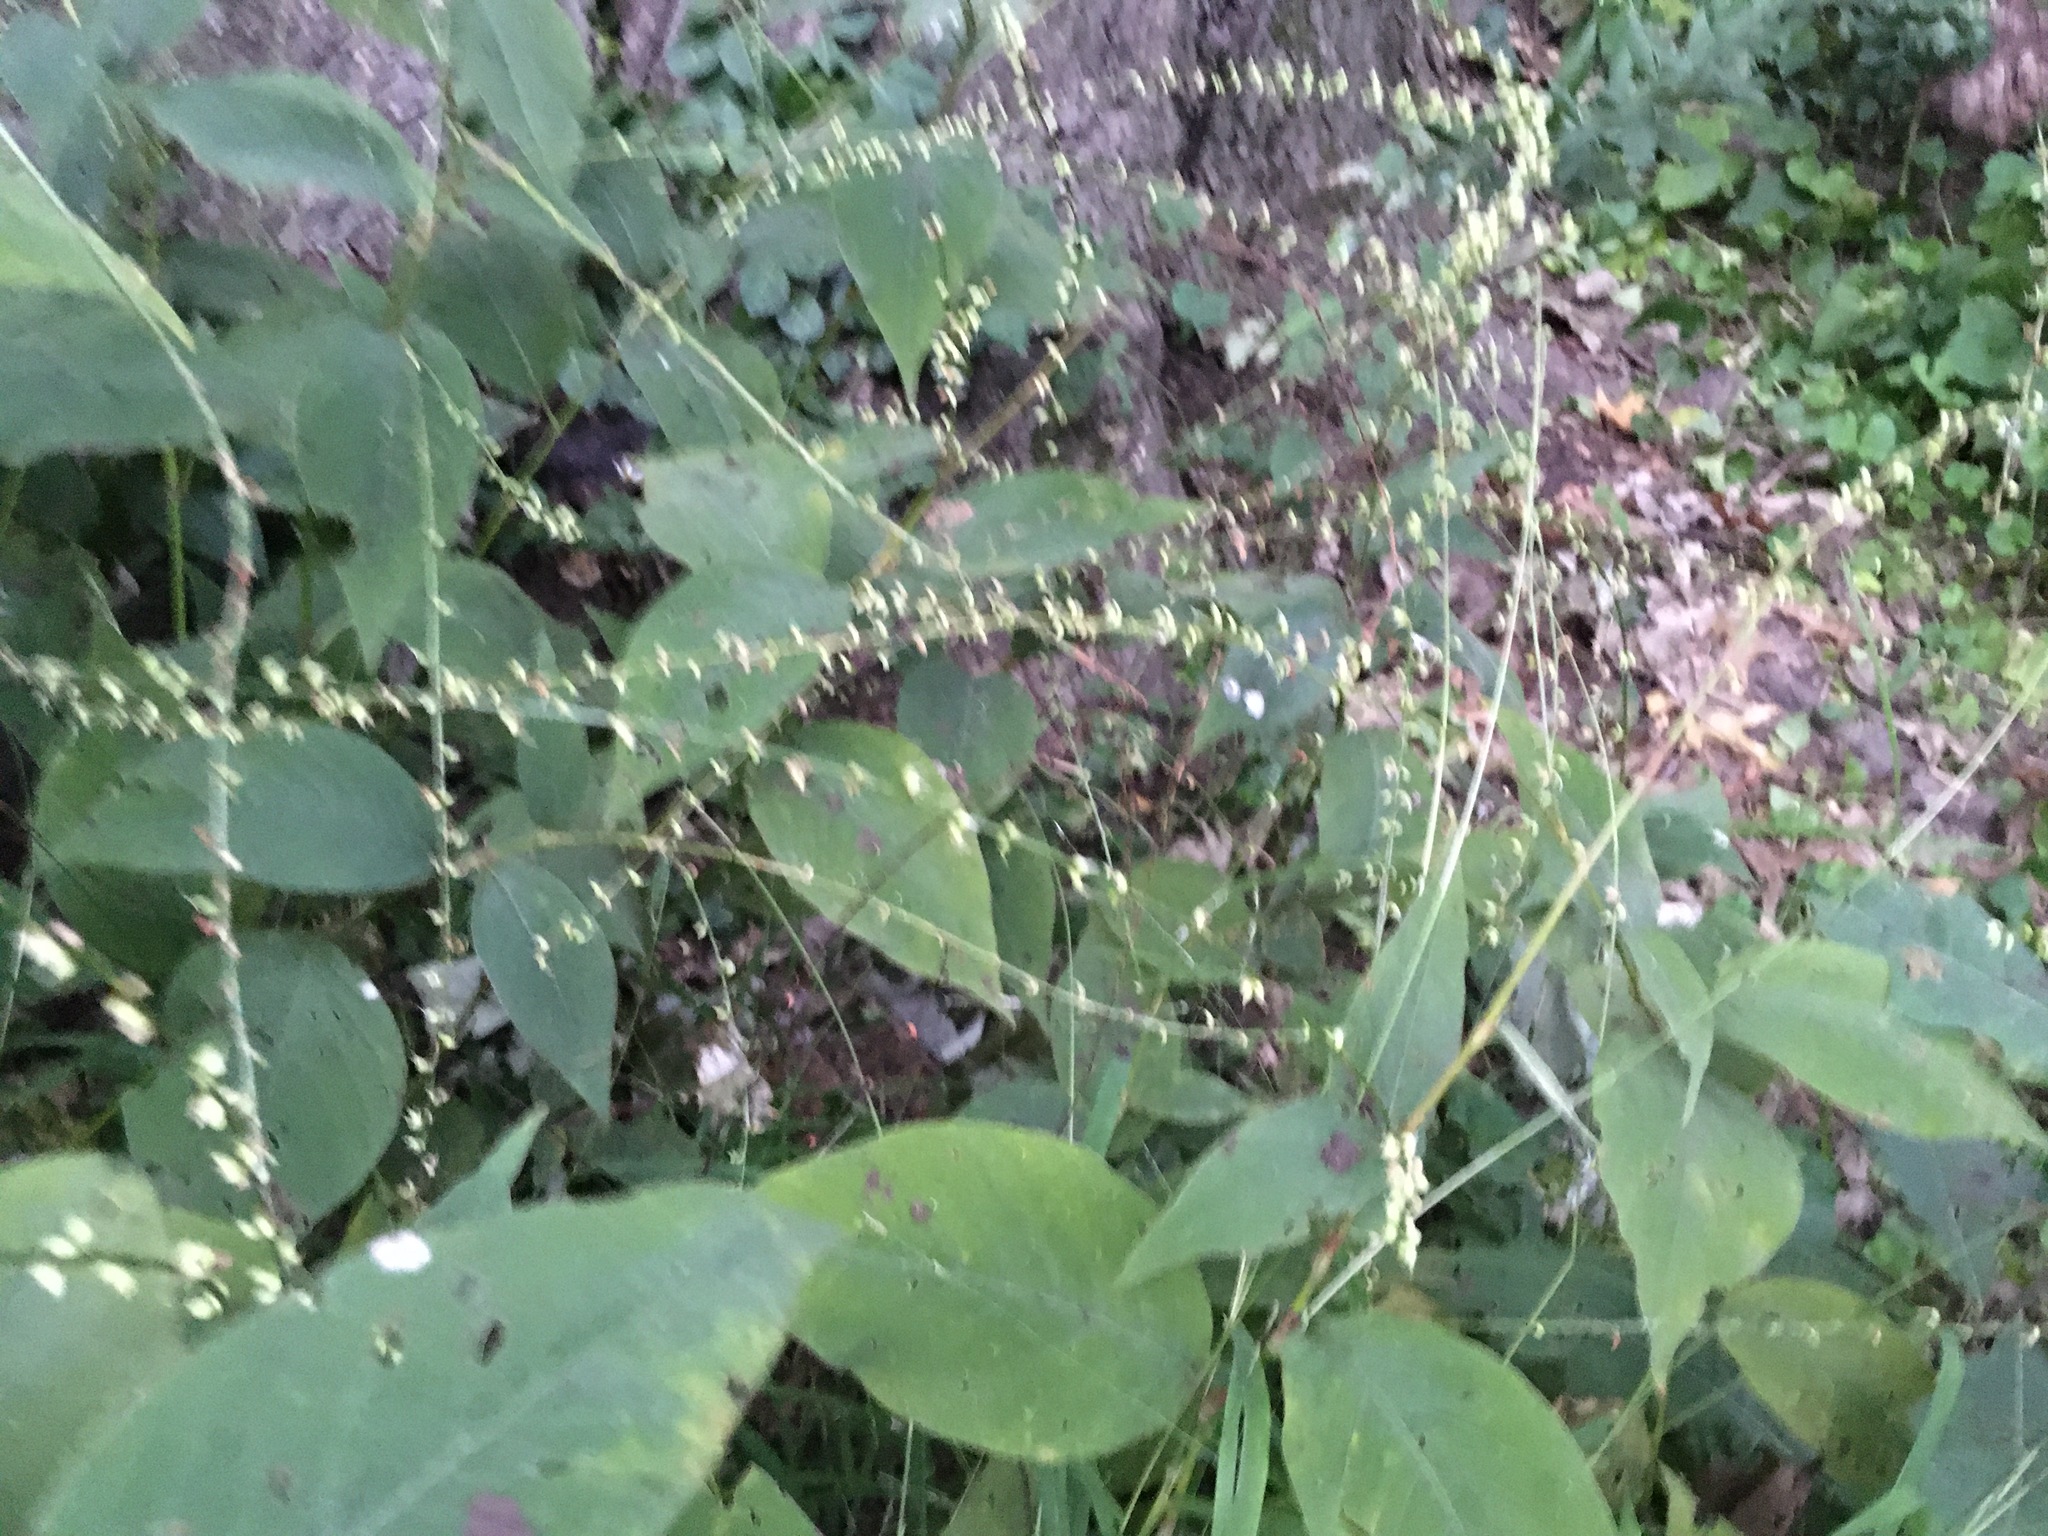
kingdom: Plantae
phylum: Tracheophyta
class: Magnoliopsida
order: Caryophyllales
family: Polygonaceae
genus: Persicaria
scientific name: Persicaria virginiana
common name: Jumpseed
